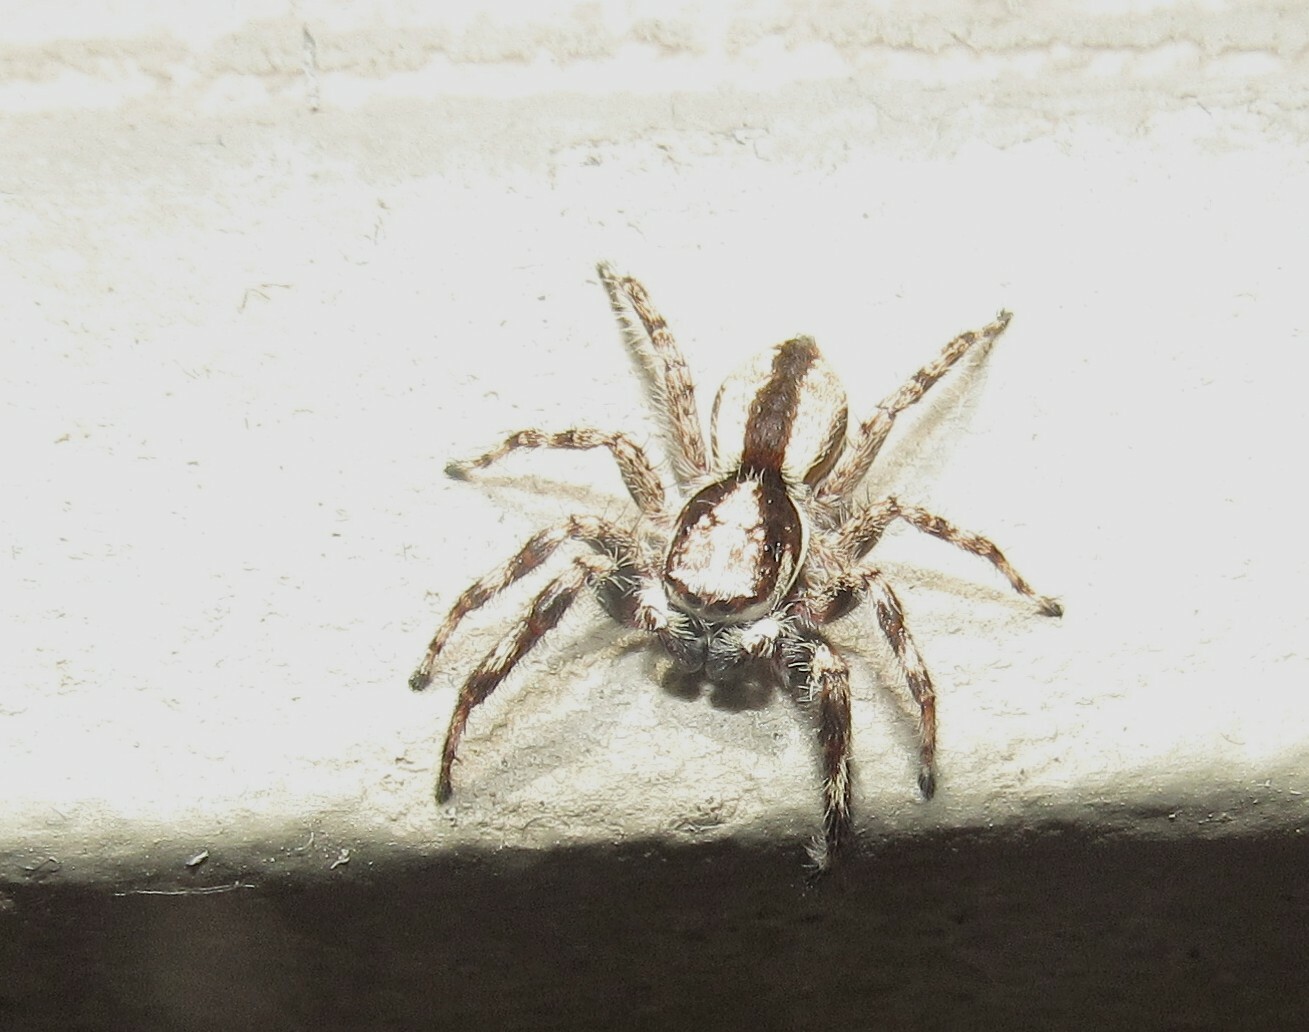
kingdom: Animalia
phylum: Arthropoda
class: Arachnida
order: Araneae
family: Salticidae
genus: Menemerus
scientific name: Menemerus bivittatus
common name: Gray wall jumper
